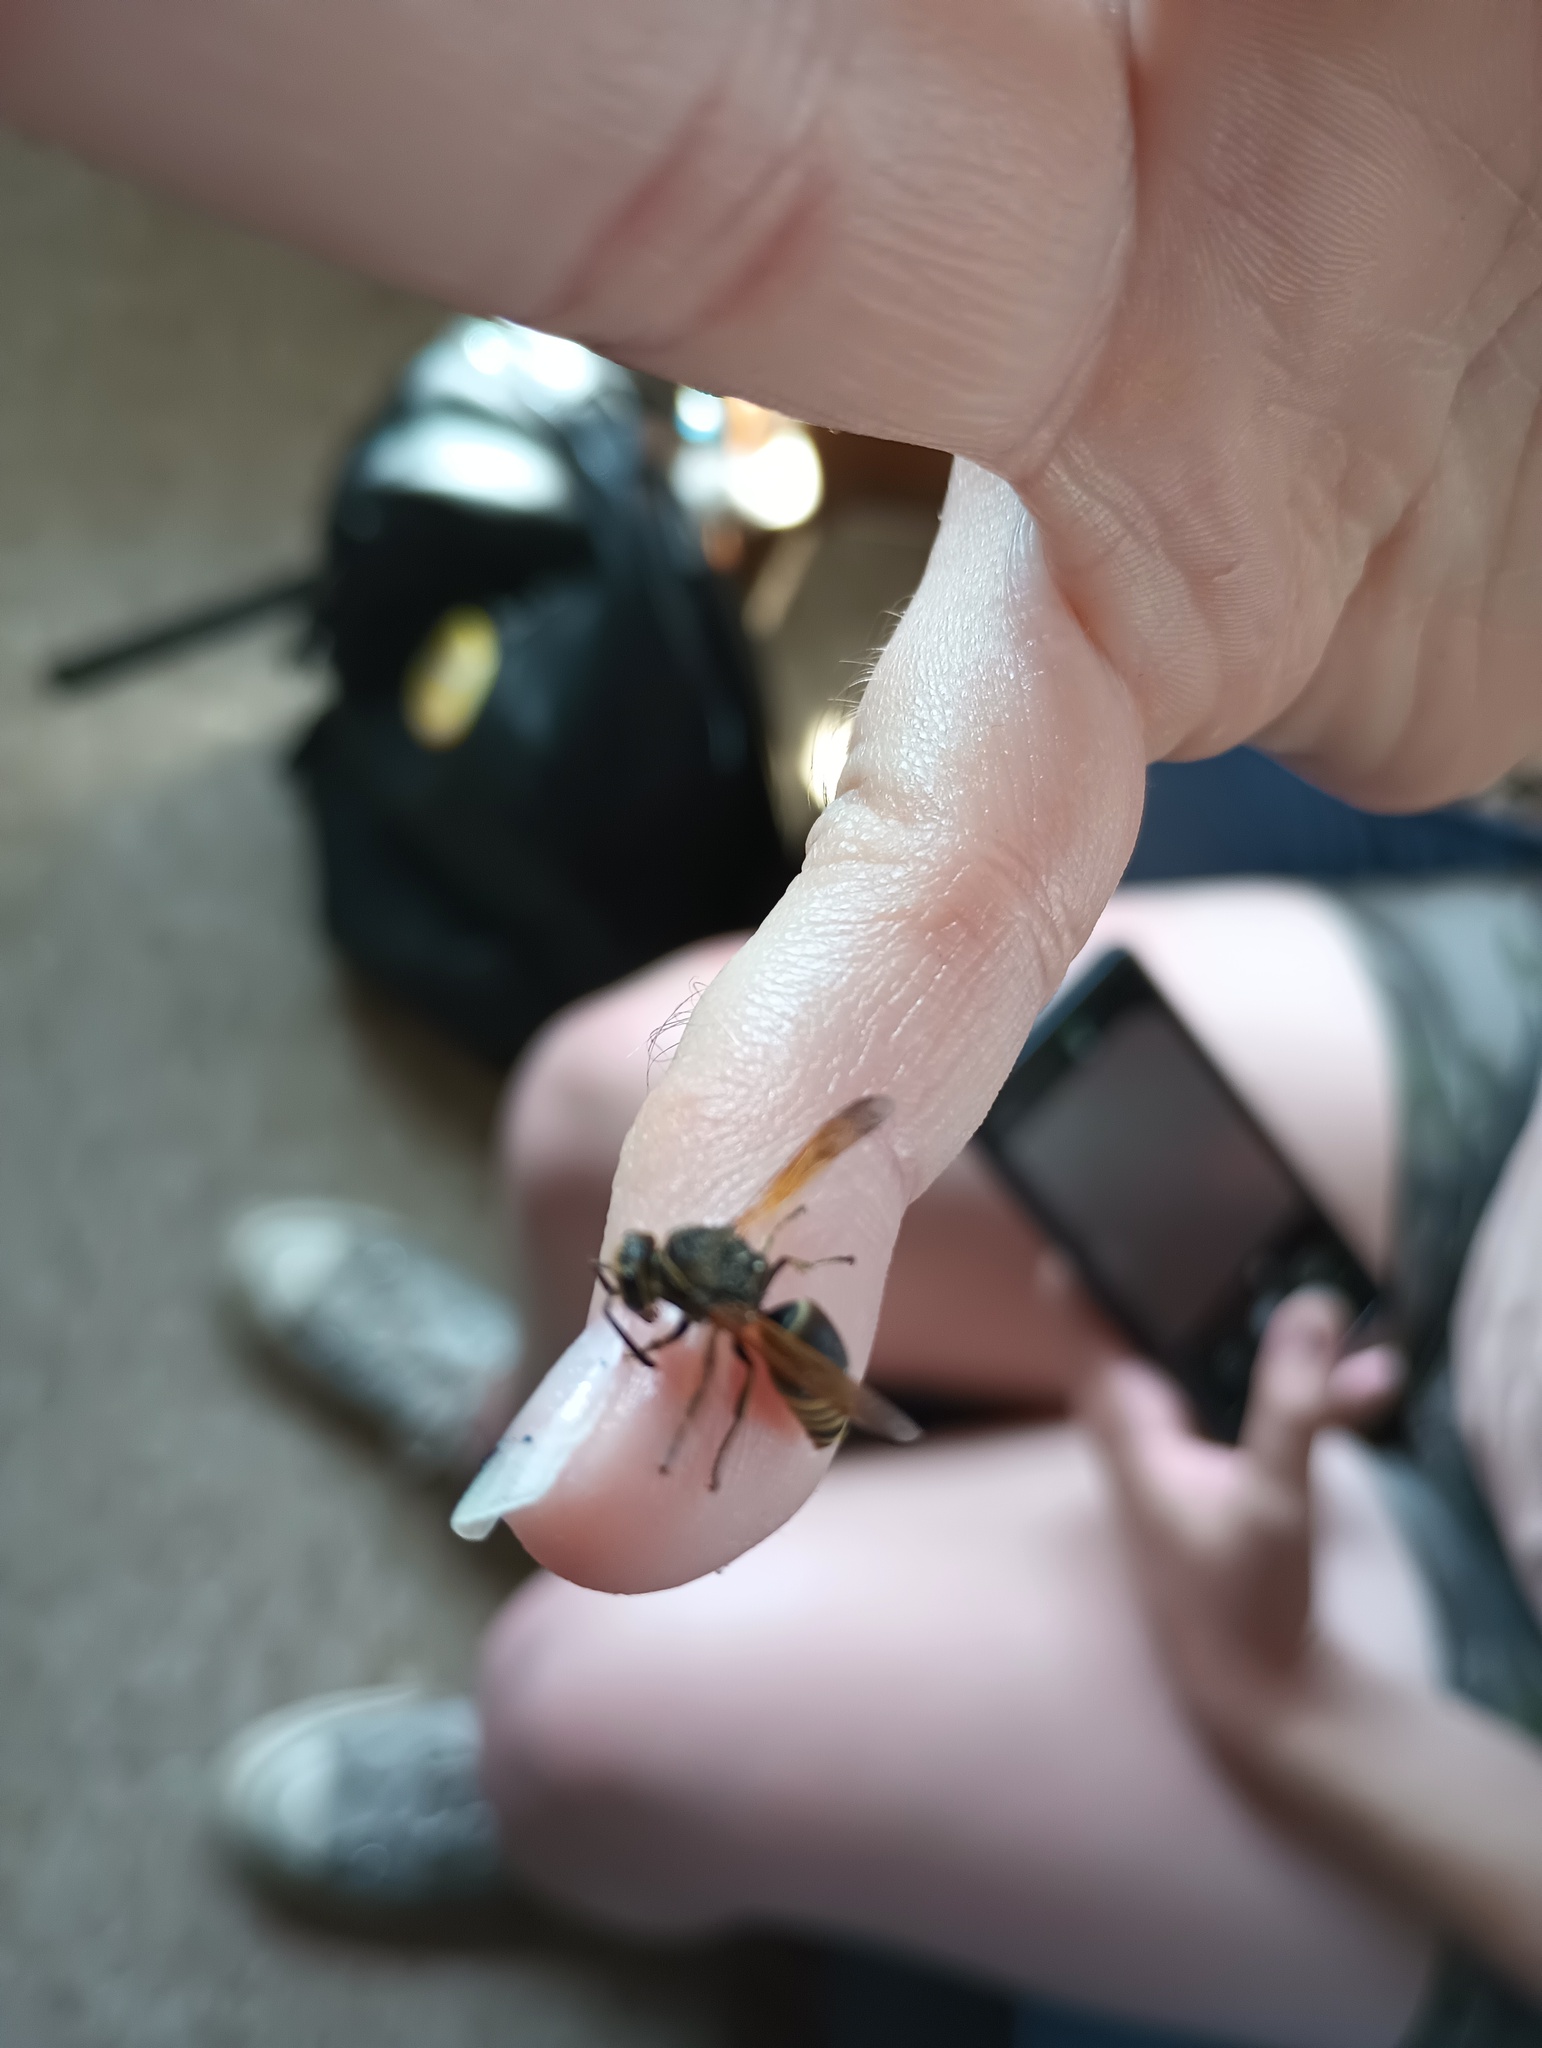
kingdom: Animalia
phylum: Arthropoda
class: Insecta
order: Hymenoptera
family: Eumenidae
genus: Pachodynerus
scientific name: Pachodynerus nasidens
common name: Key hole wasp
